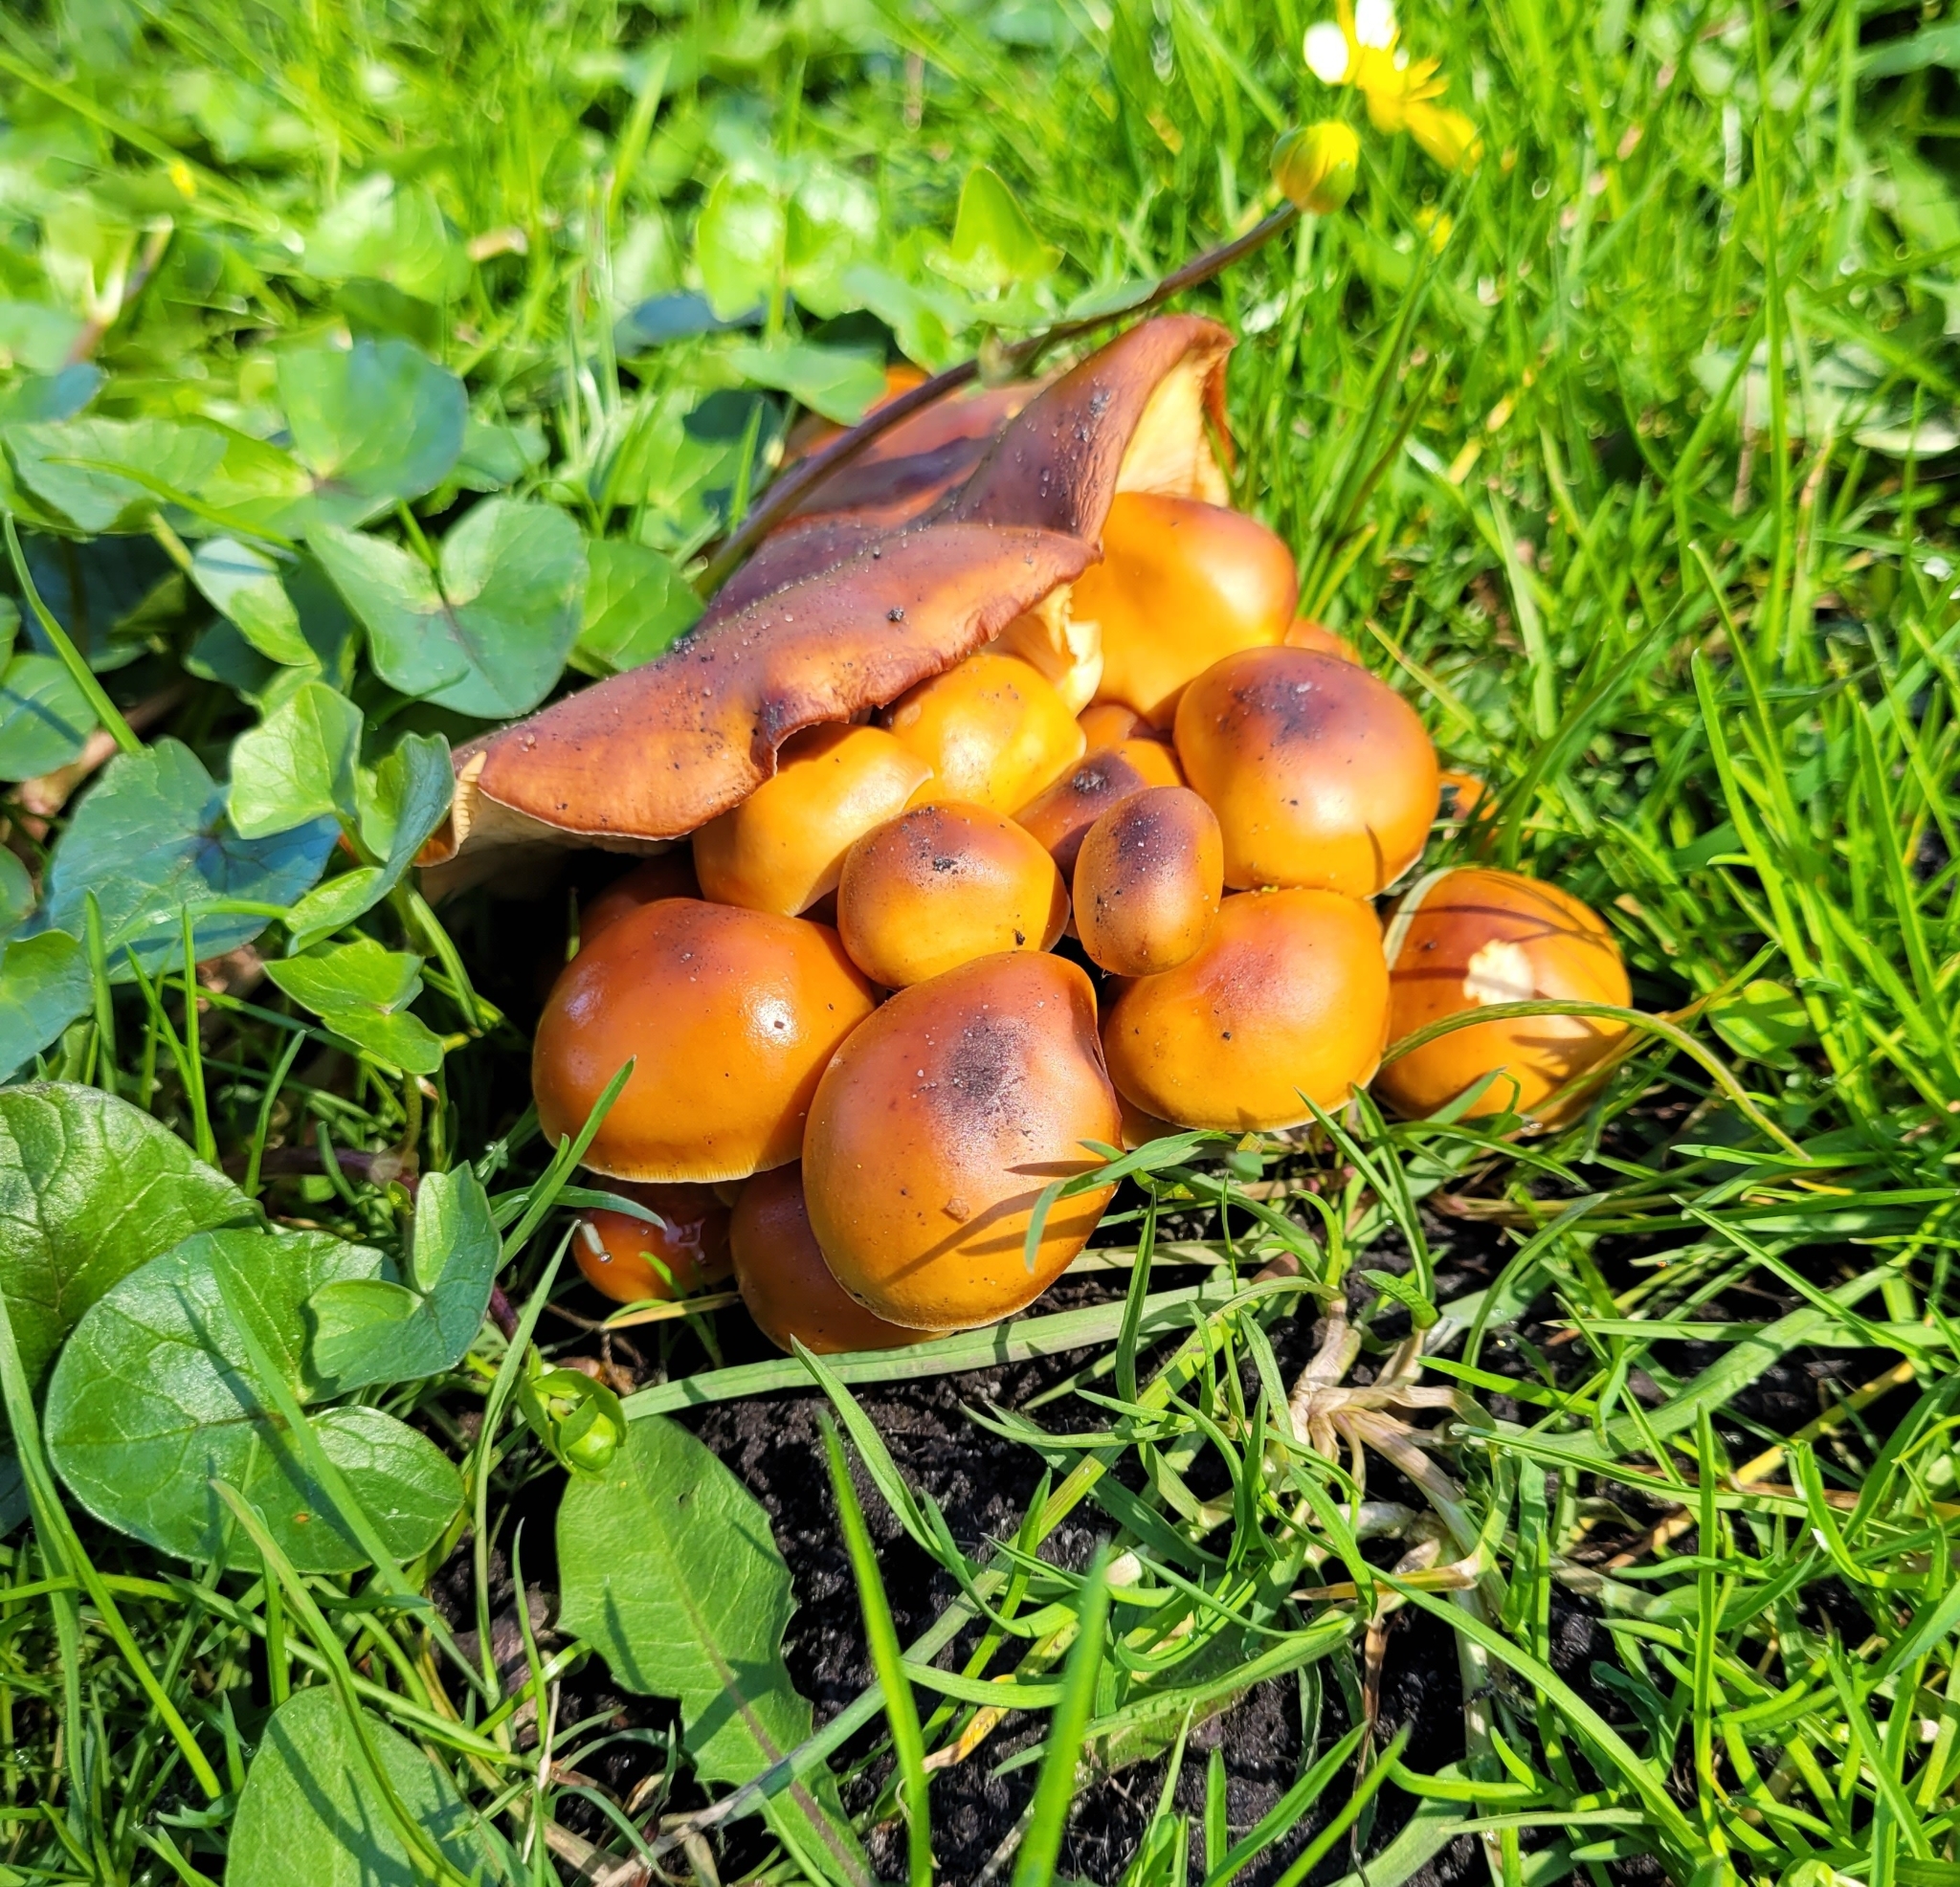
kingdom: Fungi
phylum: Basidiomycota
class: Agaricomycetes
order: Agaricales
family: Physalacriaceae
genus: Flammulina
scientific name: Flammulina
